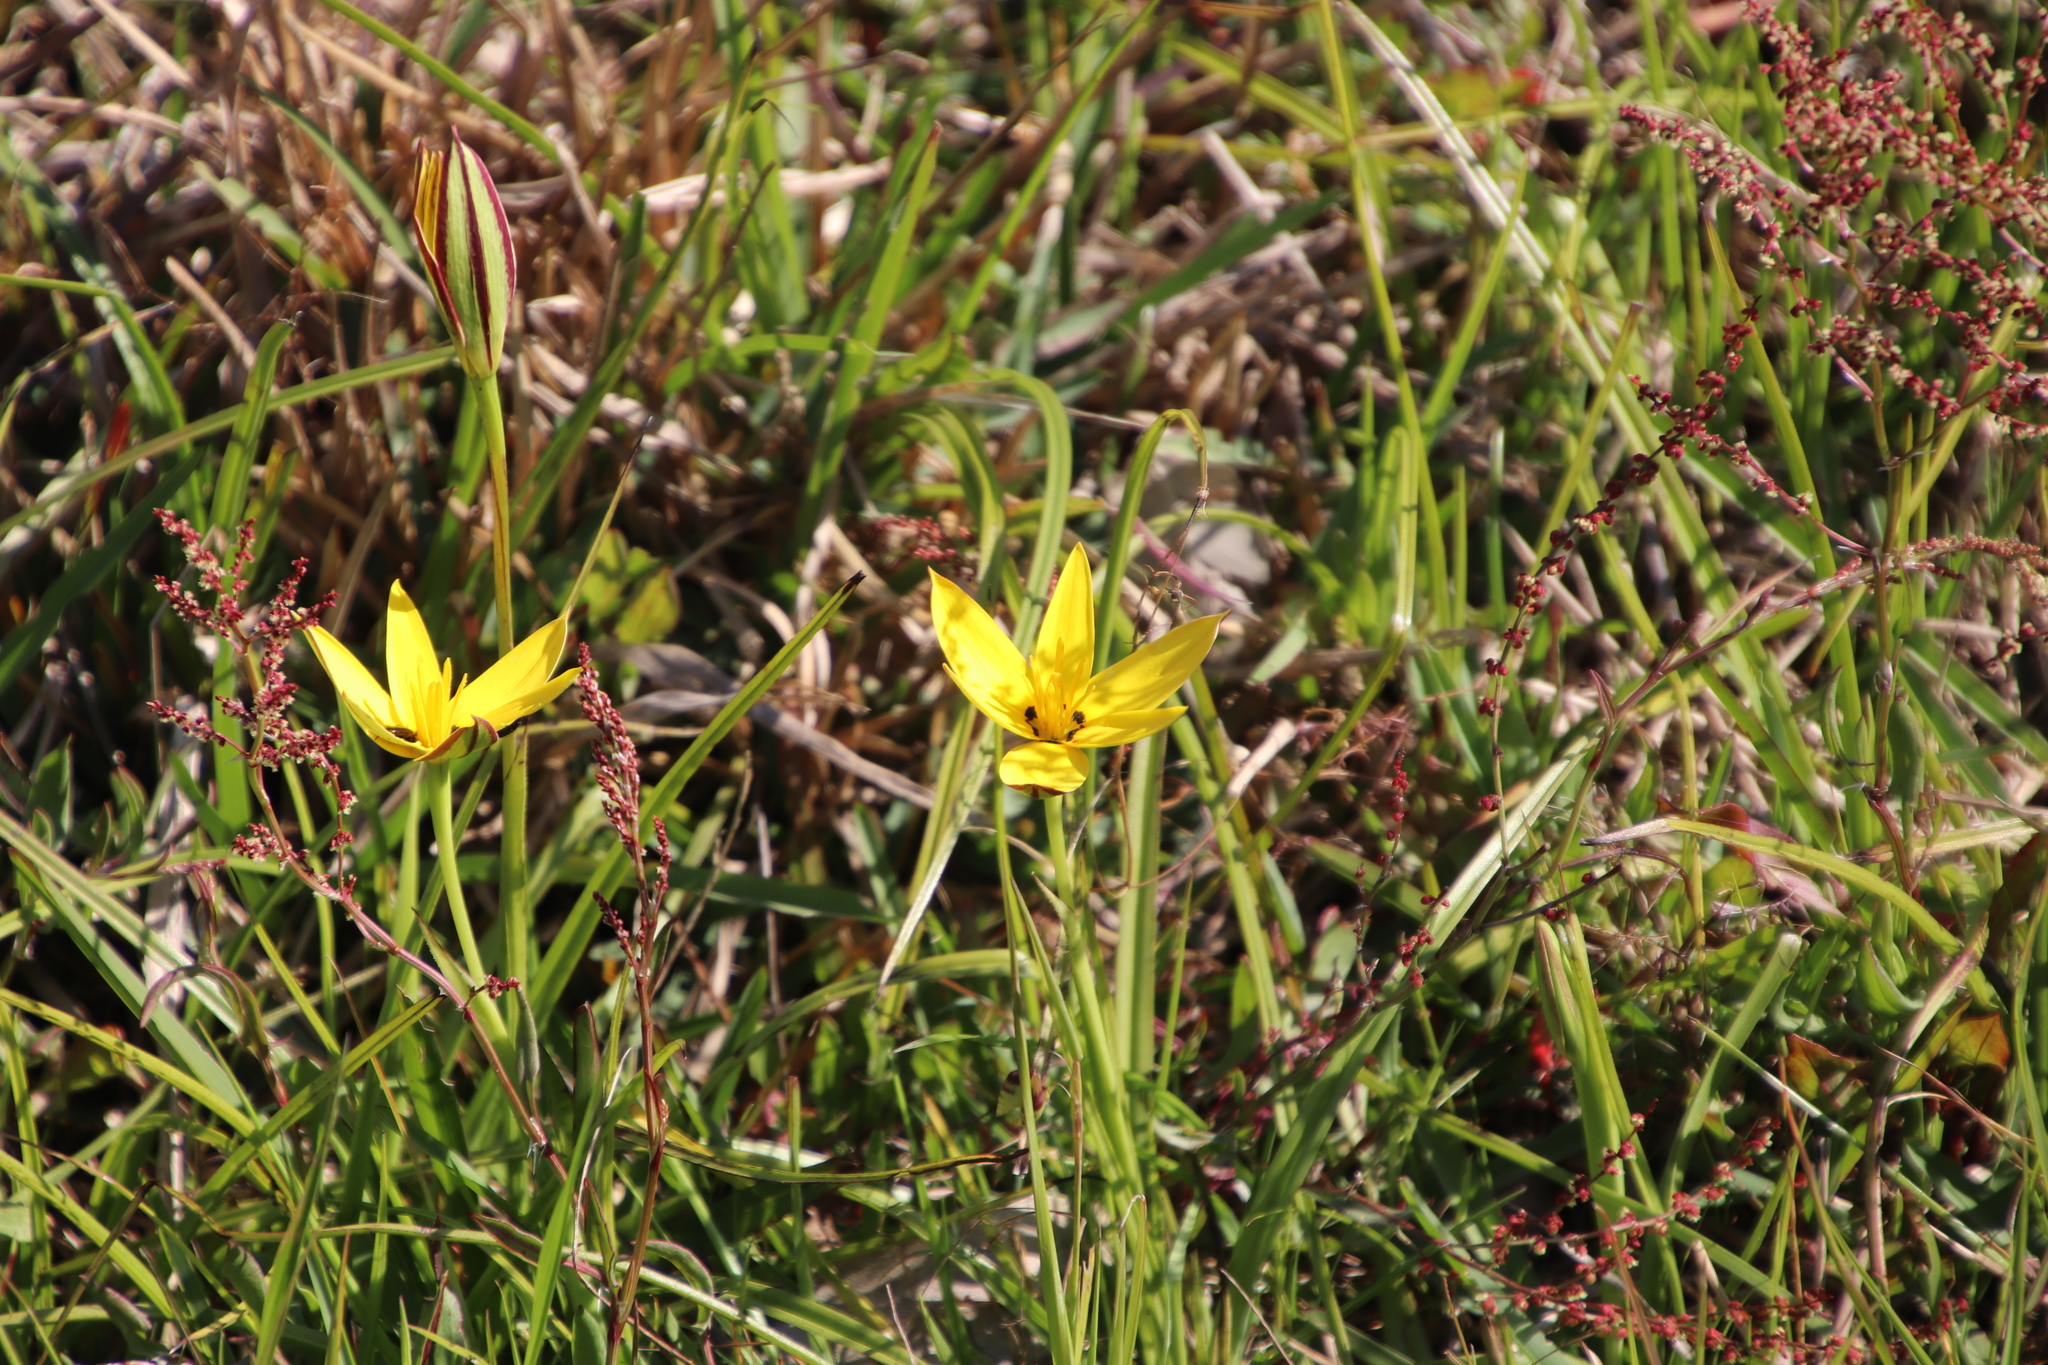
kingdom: Plantae
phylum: Tracheophyta
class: Liliopsida
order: Asparagales
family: Hypoxidaceae
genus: Pauridia
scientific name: Pauridia capensis
